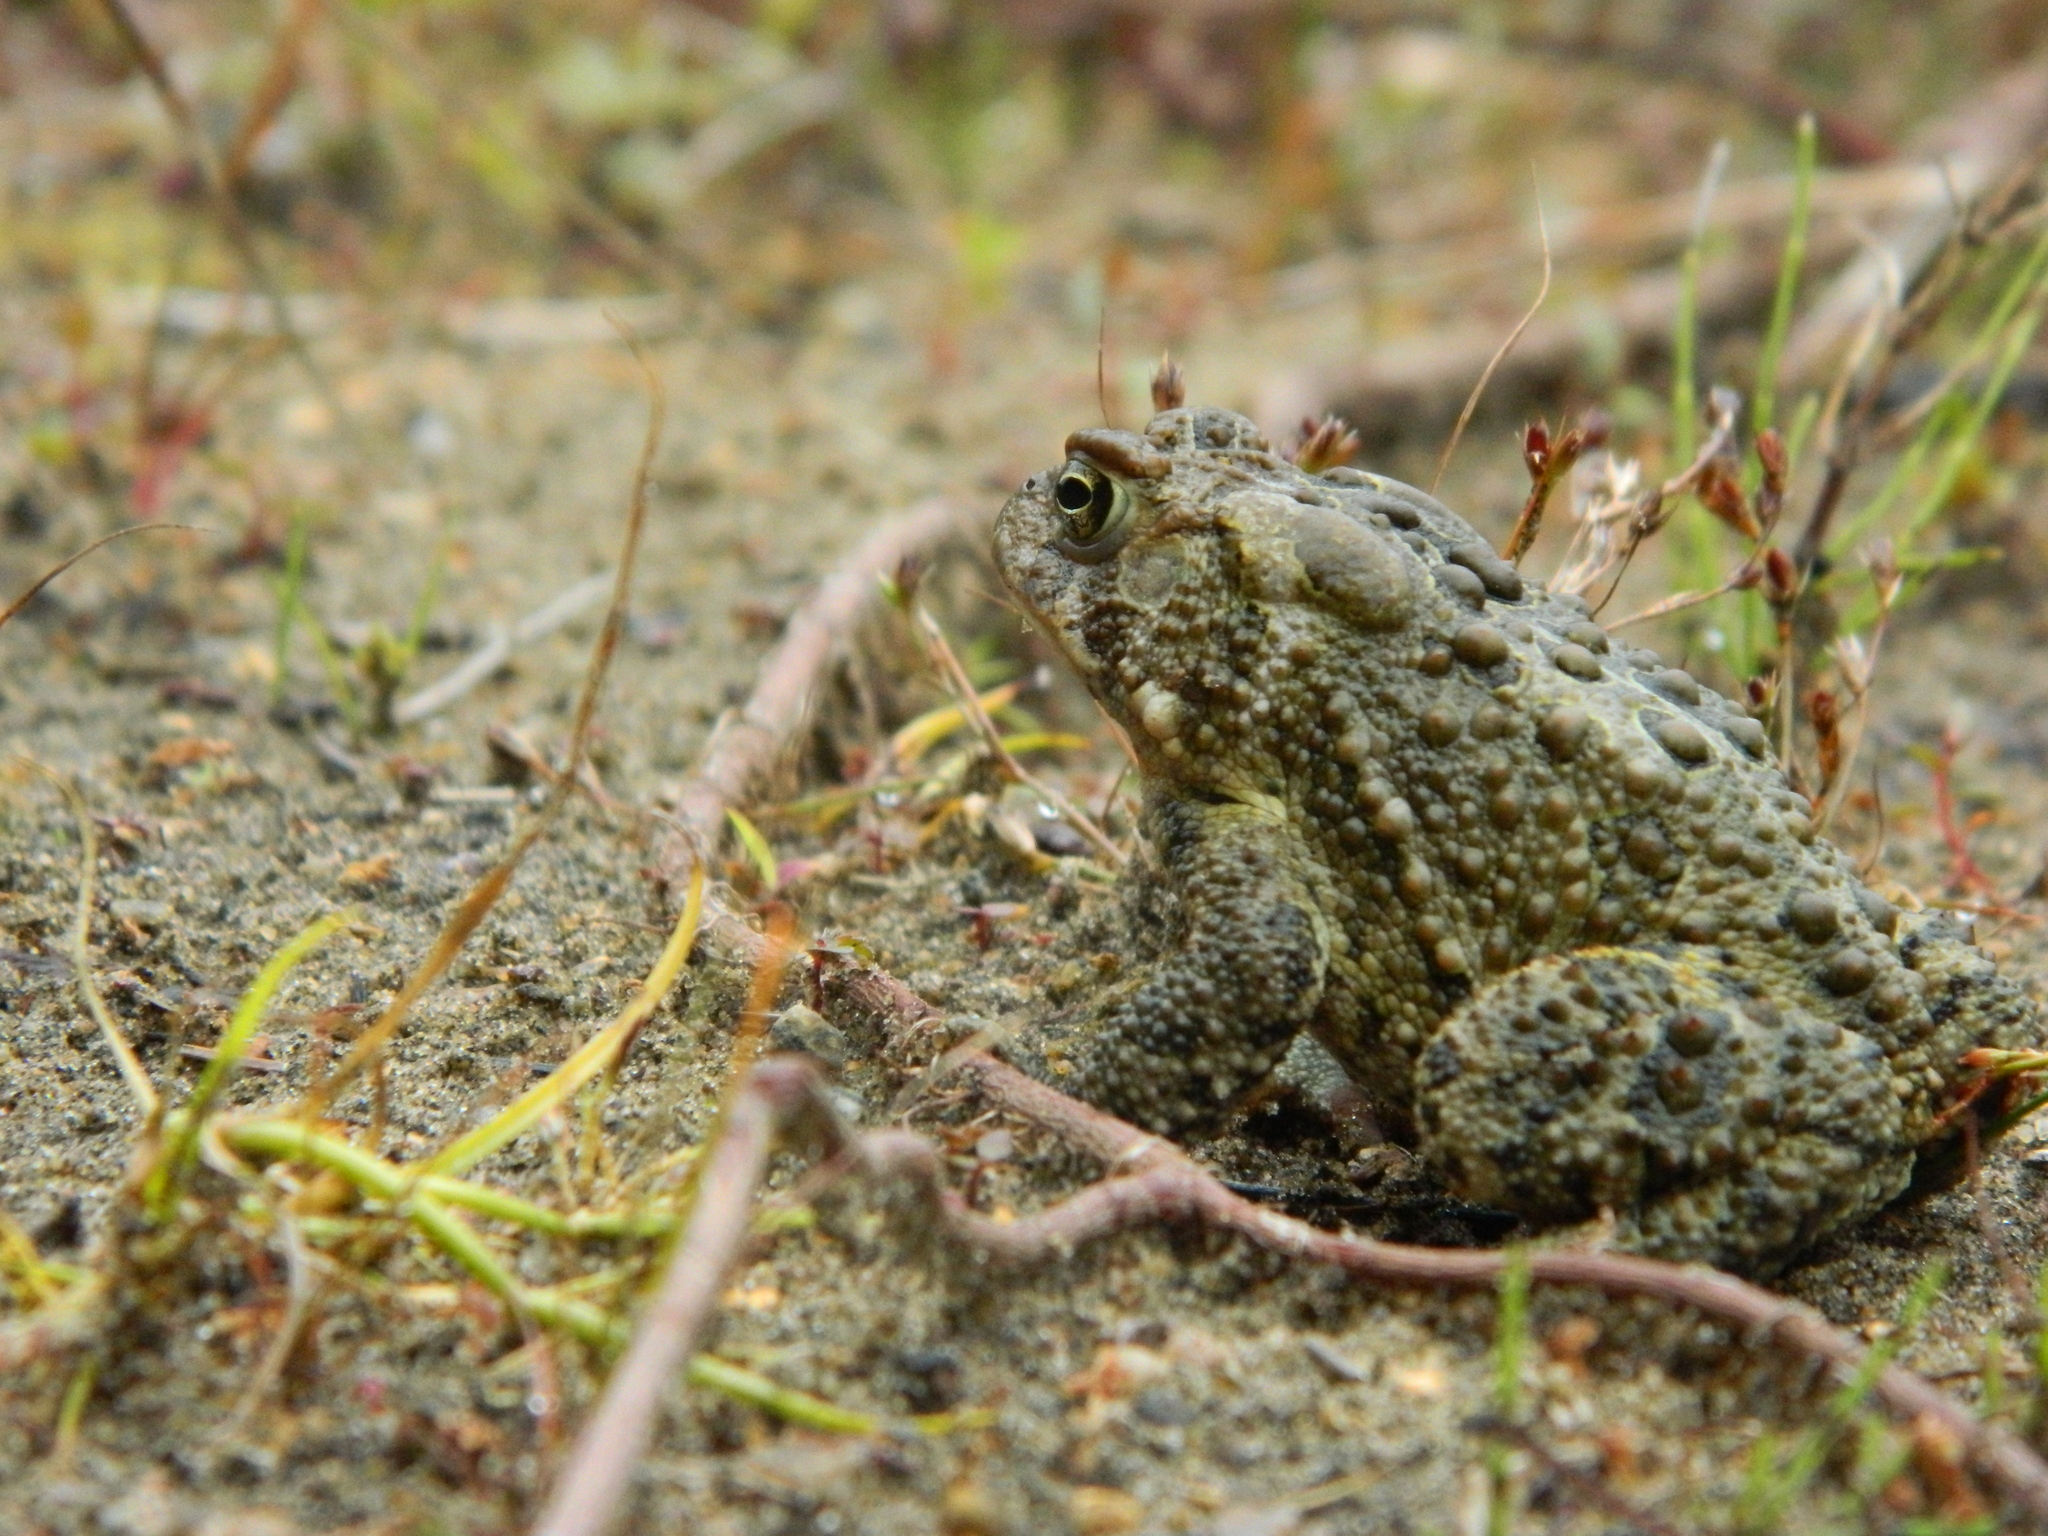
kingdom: Animalia
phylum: Chordata
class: Amphibia
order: Anura
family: Bufonidae
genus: Anaxyrus
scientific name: Anaxyrus americanus
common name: American toad
